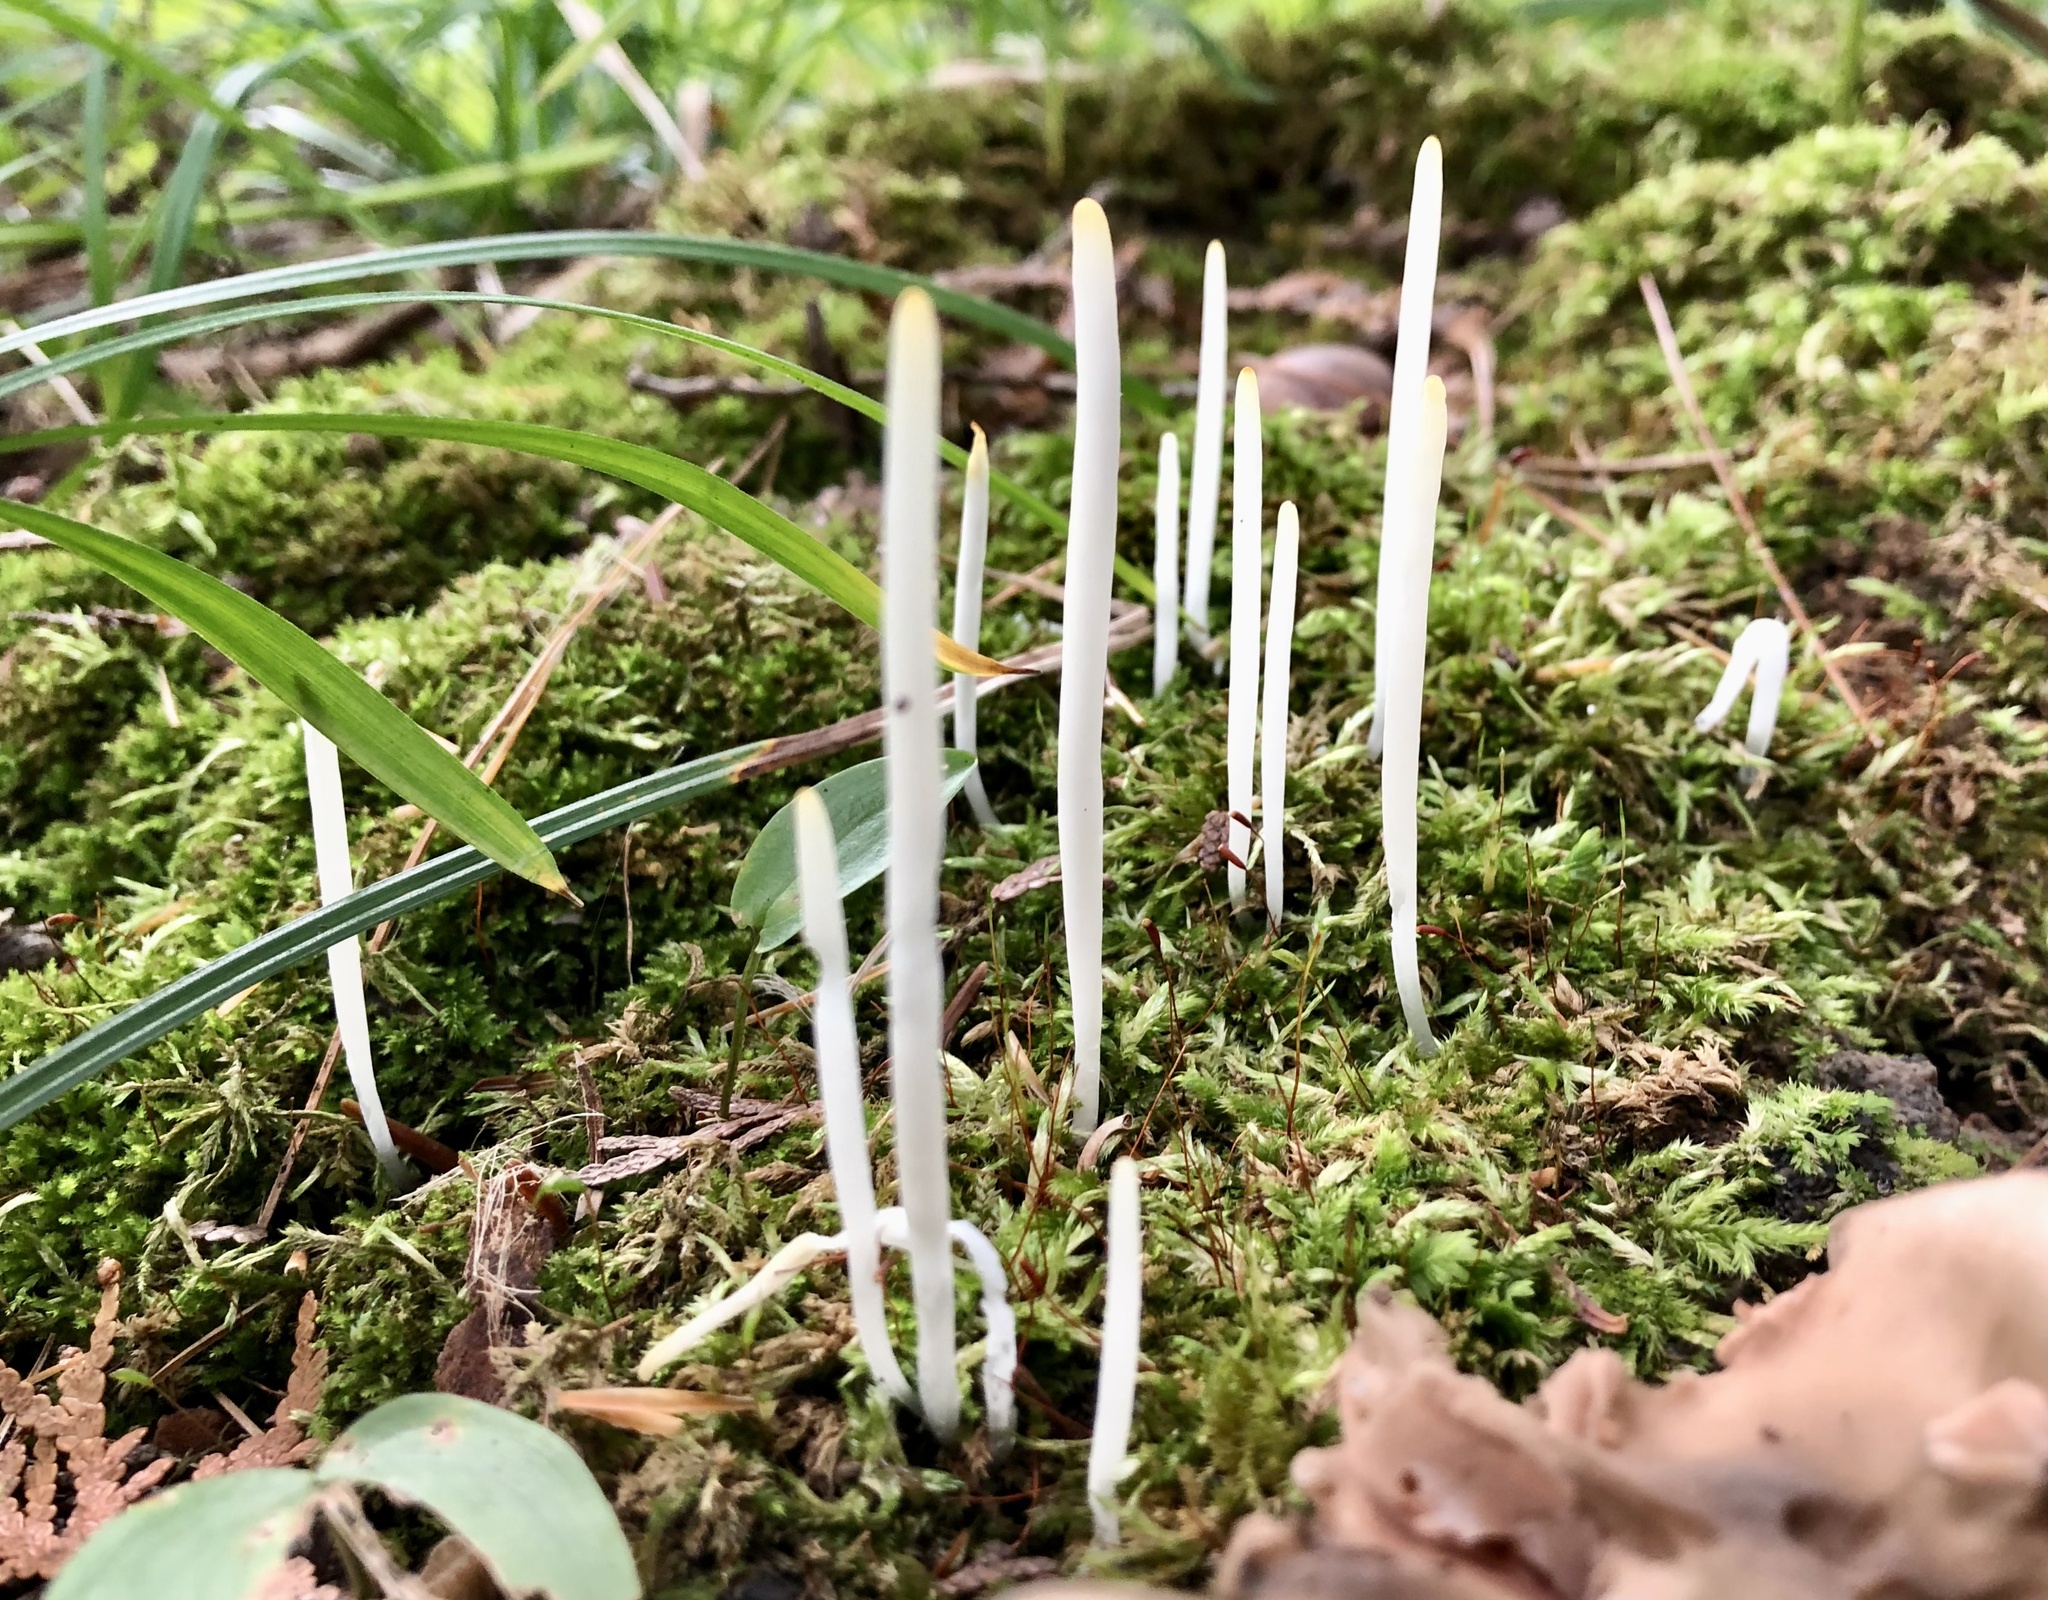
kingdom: Fungi
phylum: Basidiomycota
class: Agaricomycetes
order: Agaricales
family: Clavariaceae
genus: Clavaria
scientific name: Clavaria fragilis
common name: White spindles
